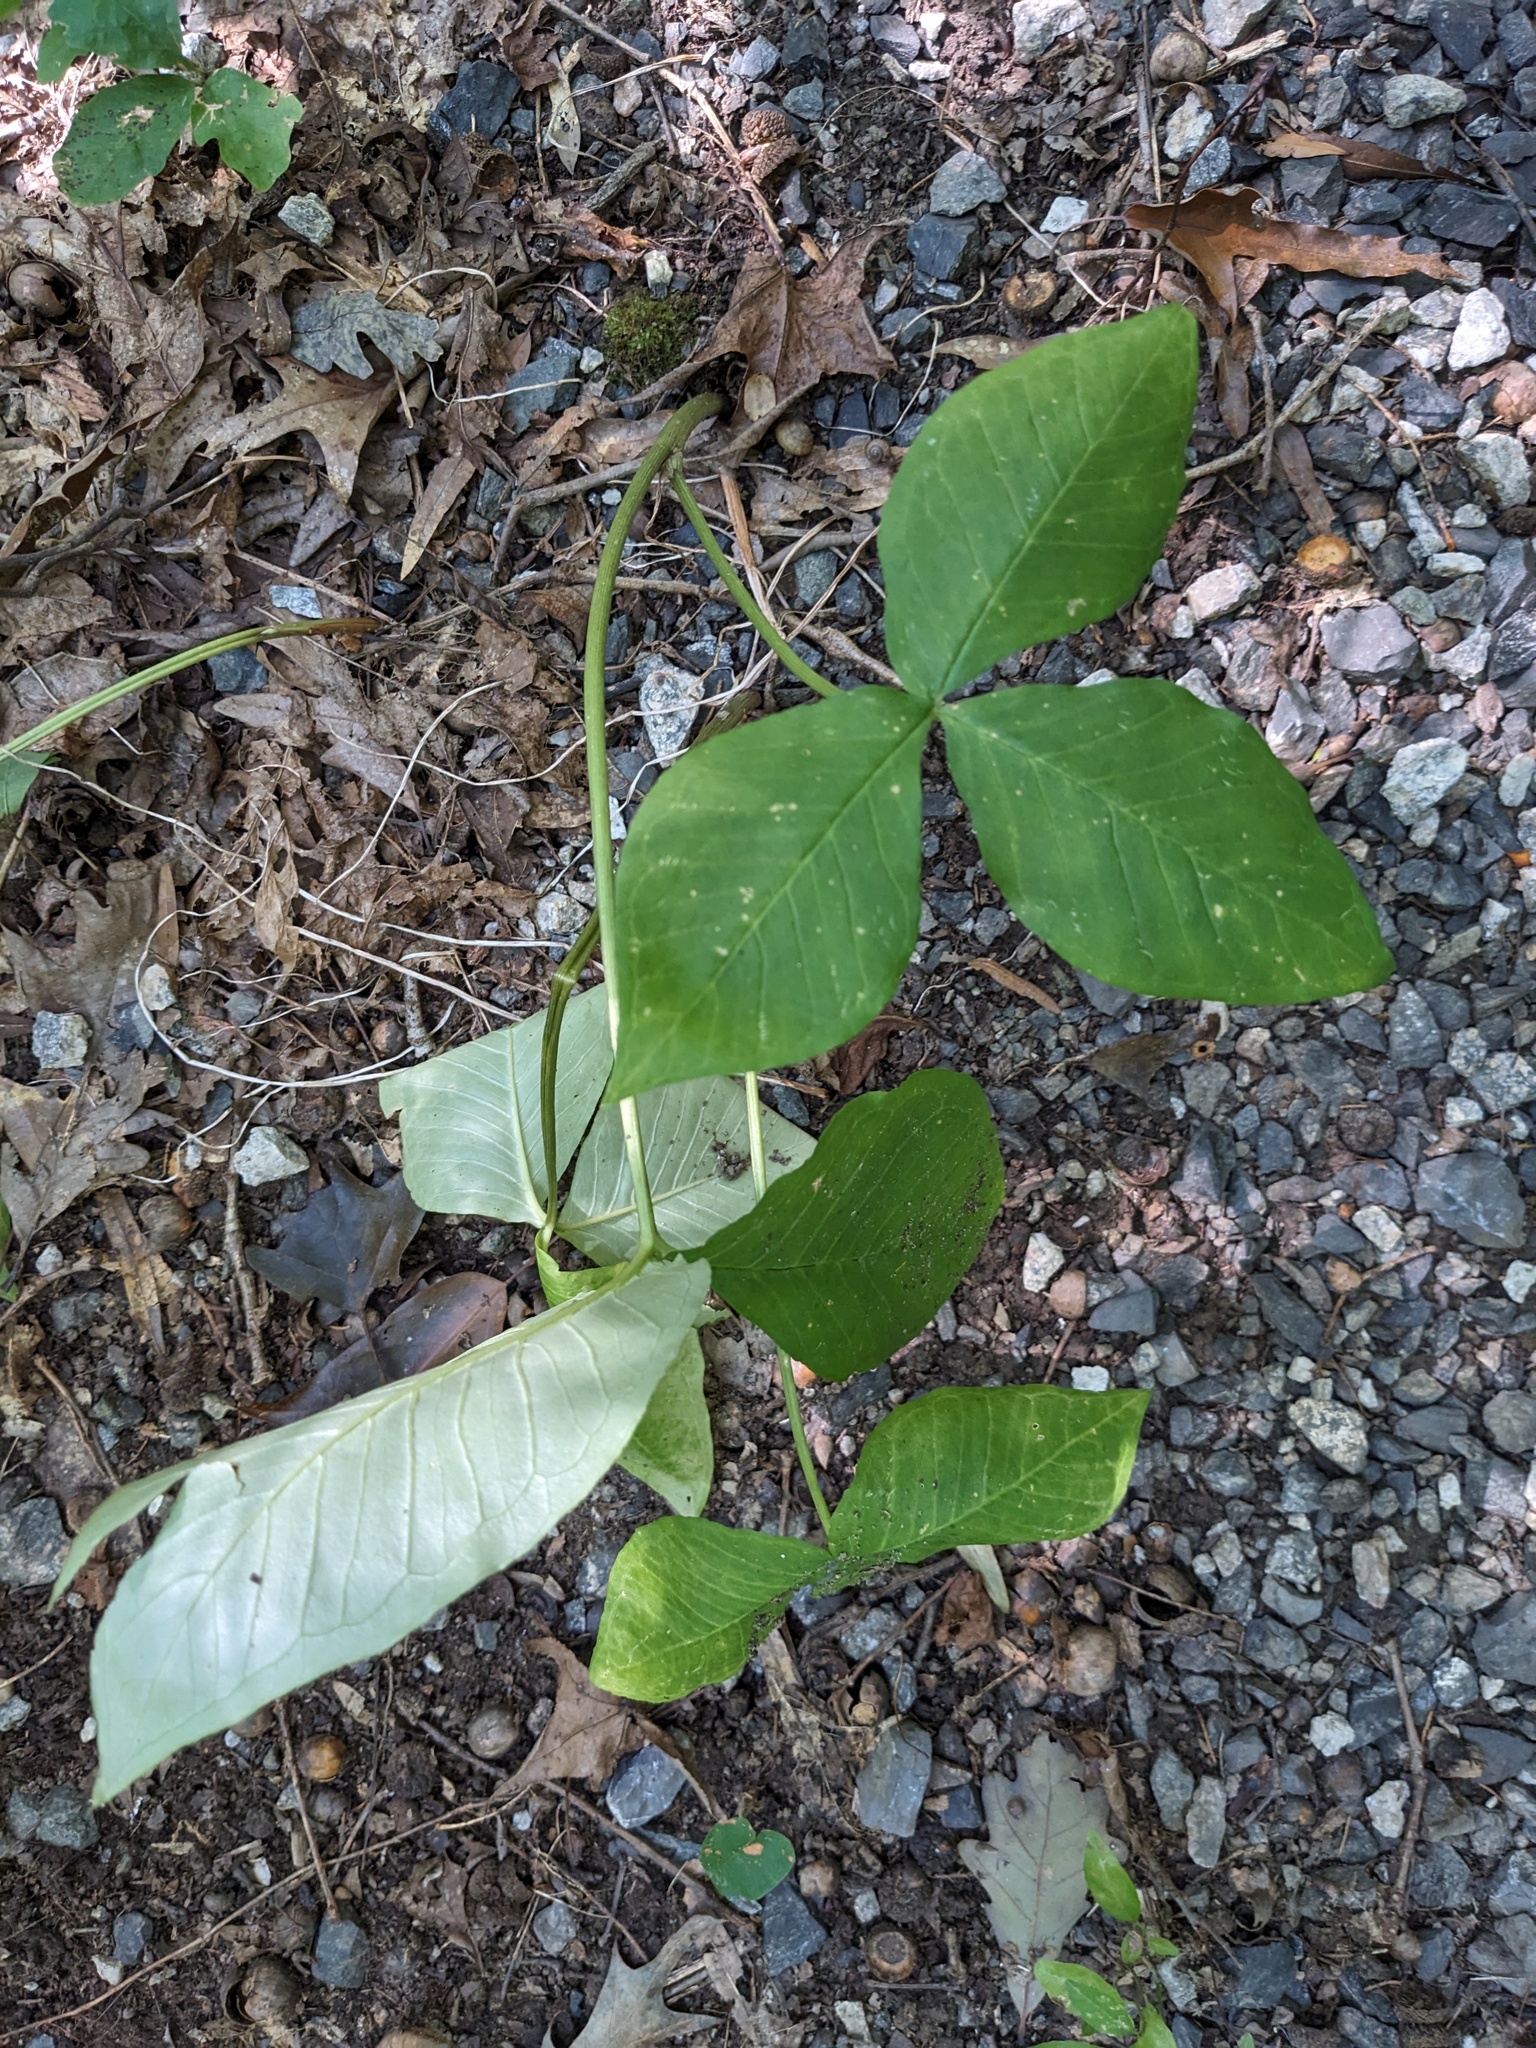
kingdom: Plantae
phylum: Tracheophyta
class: Liliopsida
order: Alismatales
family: Araceae
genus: Arisaema
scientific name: Arisaema triphyllum
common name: Jack-in-the-pulpit
